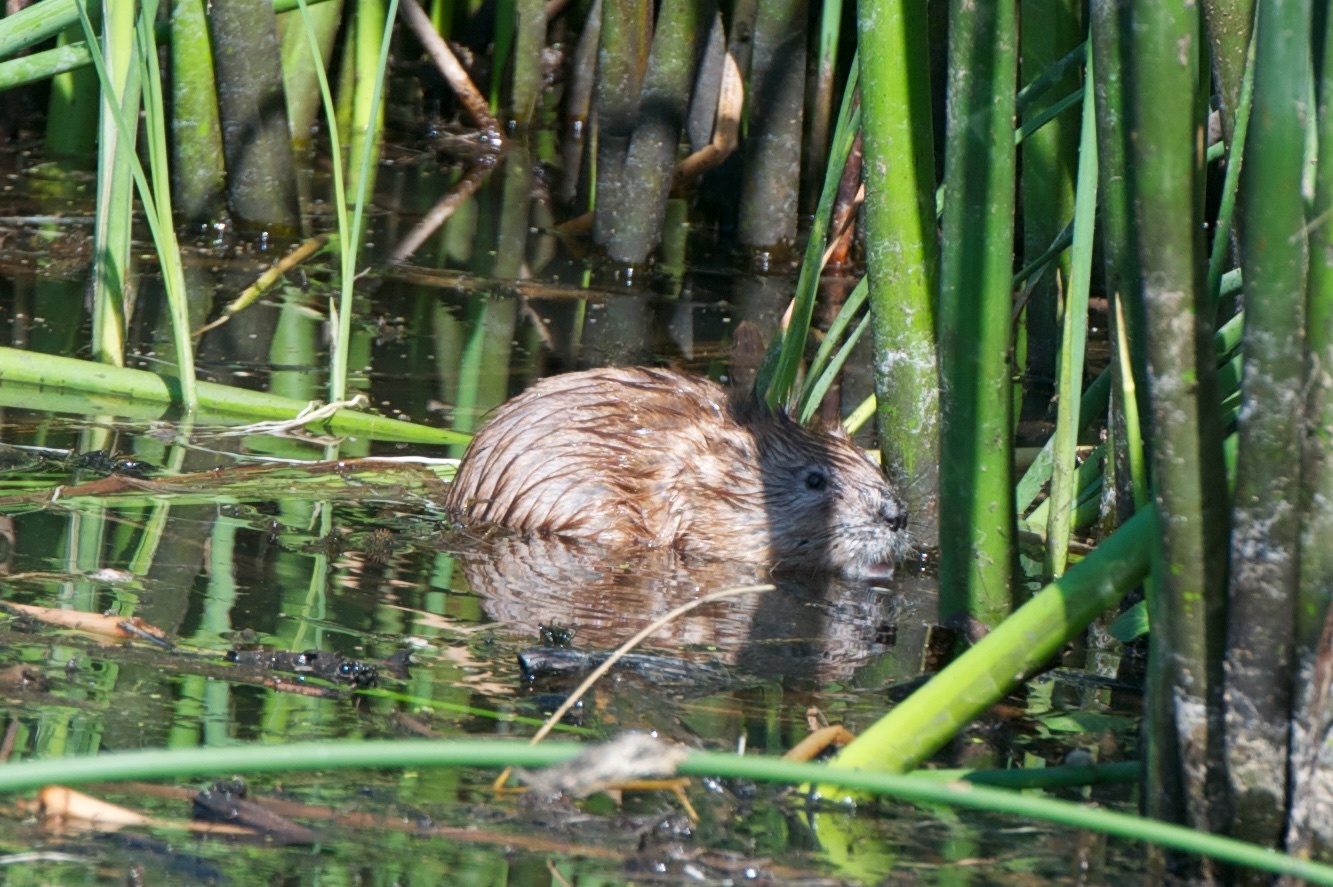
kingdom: Animalia
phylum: Chordata
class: Mammalia
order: Rodentia
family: Cricetidae
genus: Ondatra
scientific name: Ondatra zibethicus
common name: Muskrat
